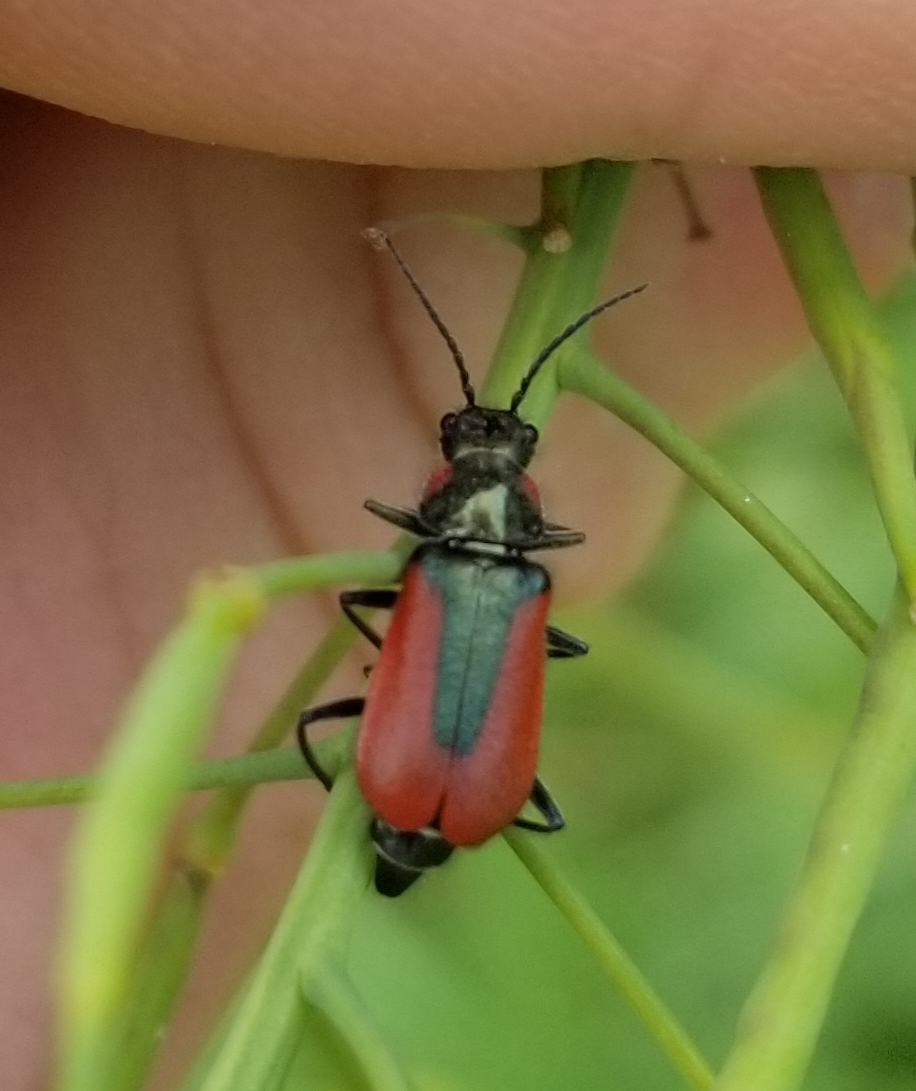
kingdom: Animalia
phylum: Arthropoda
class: Insecta
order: Coleoptera
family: Melyridae
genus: Malachius
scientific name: Malachius aeneus
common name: Scarlet malachite beetle
